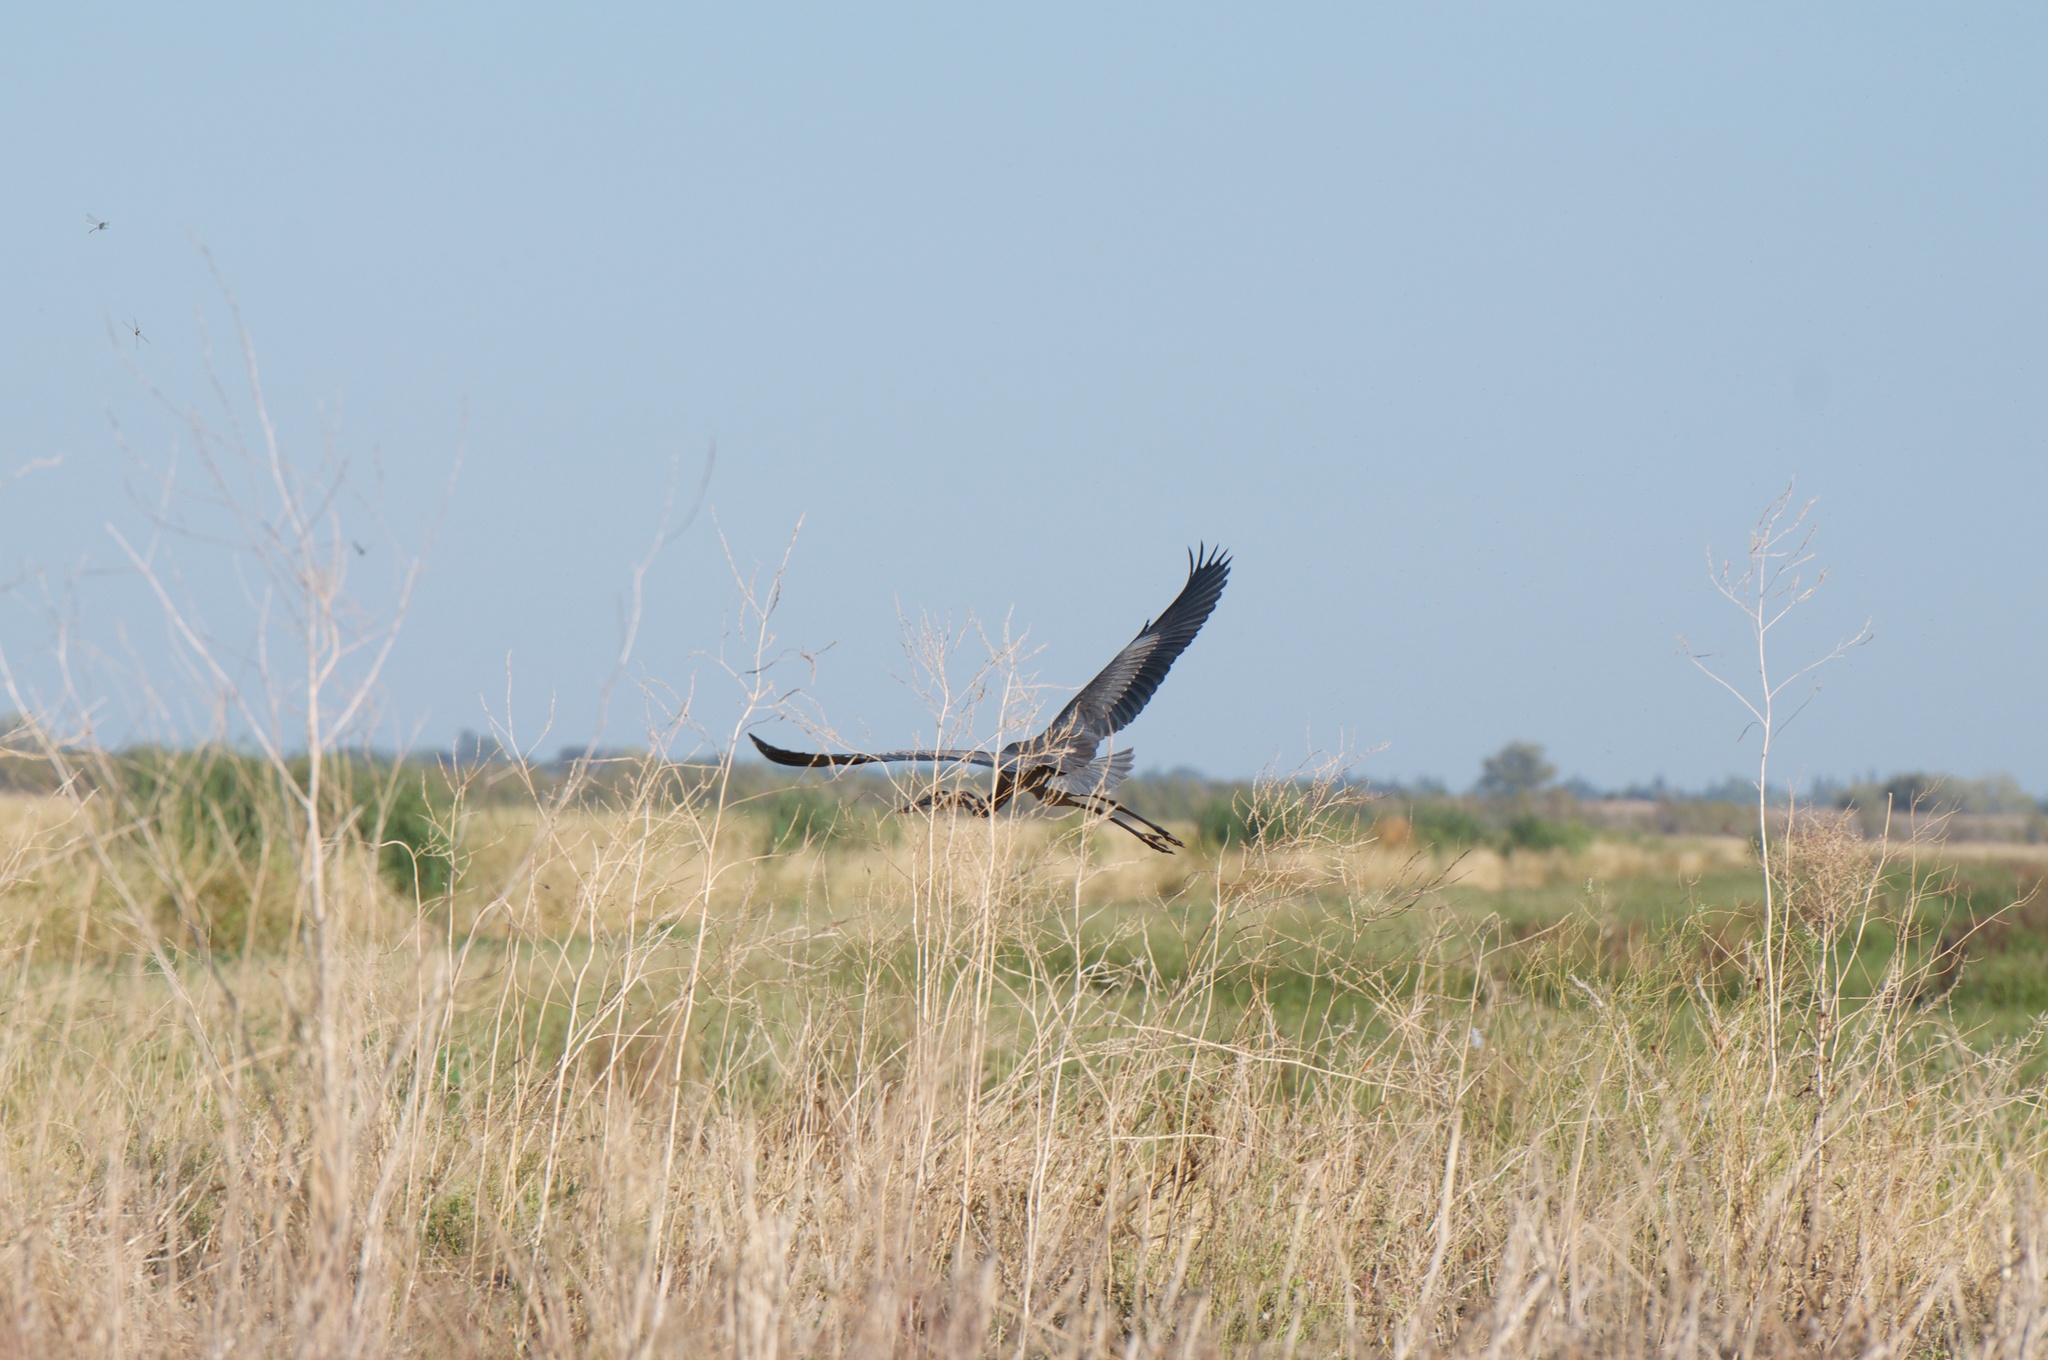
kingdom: Animalia
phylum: Chordata
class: Aves
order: Pelecaniformes
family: Ardeidae
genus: Ardea
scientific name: Ardea herodias
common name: Great blue heron
